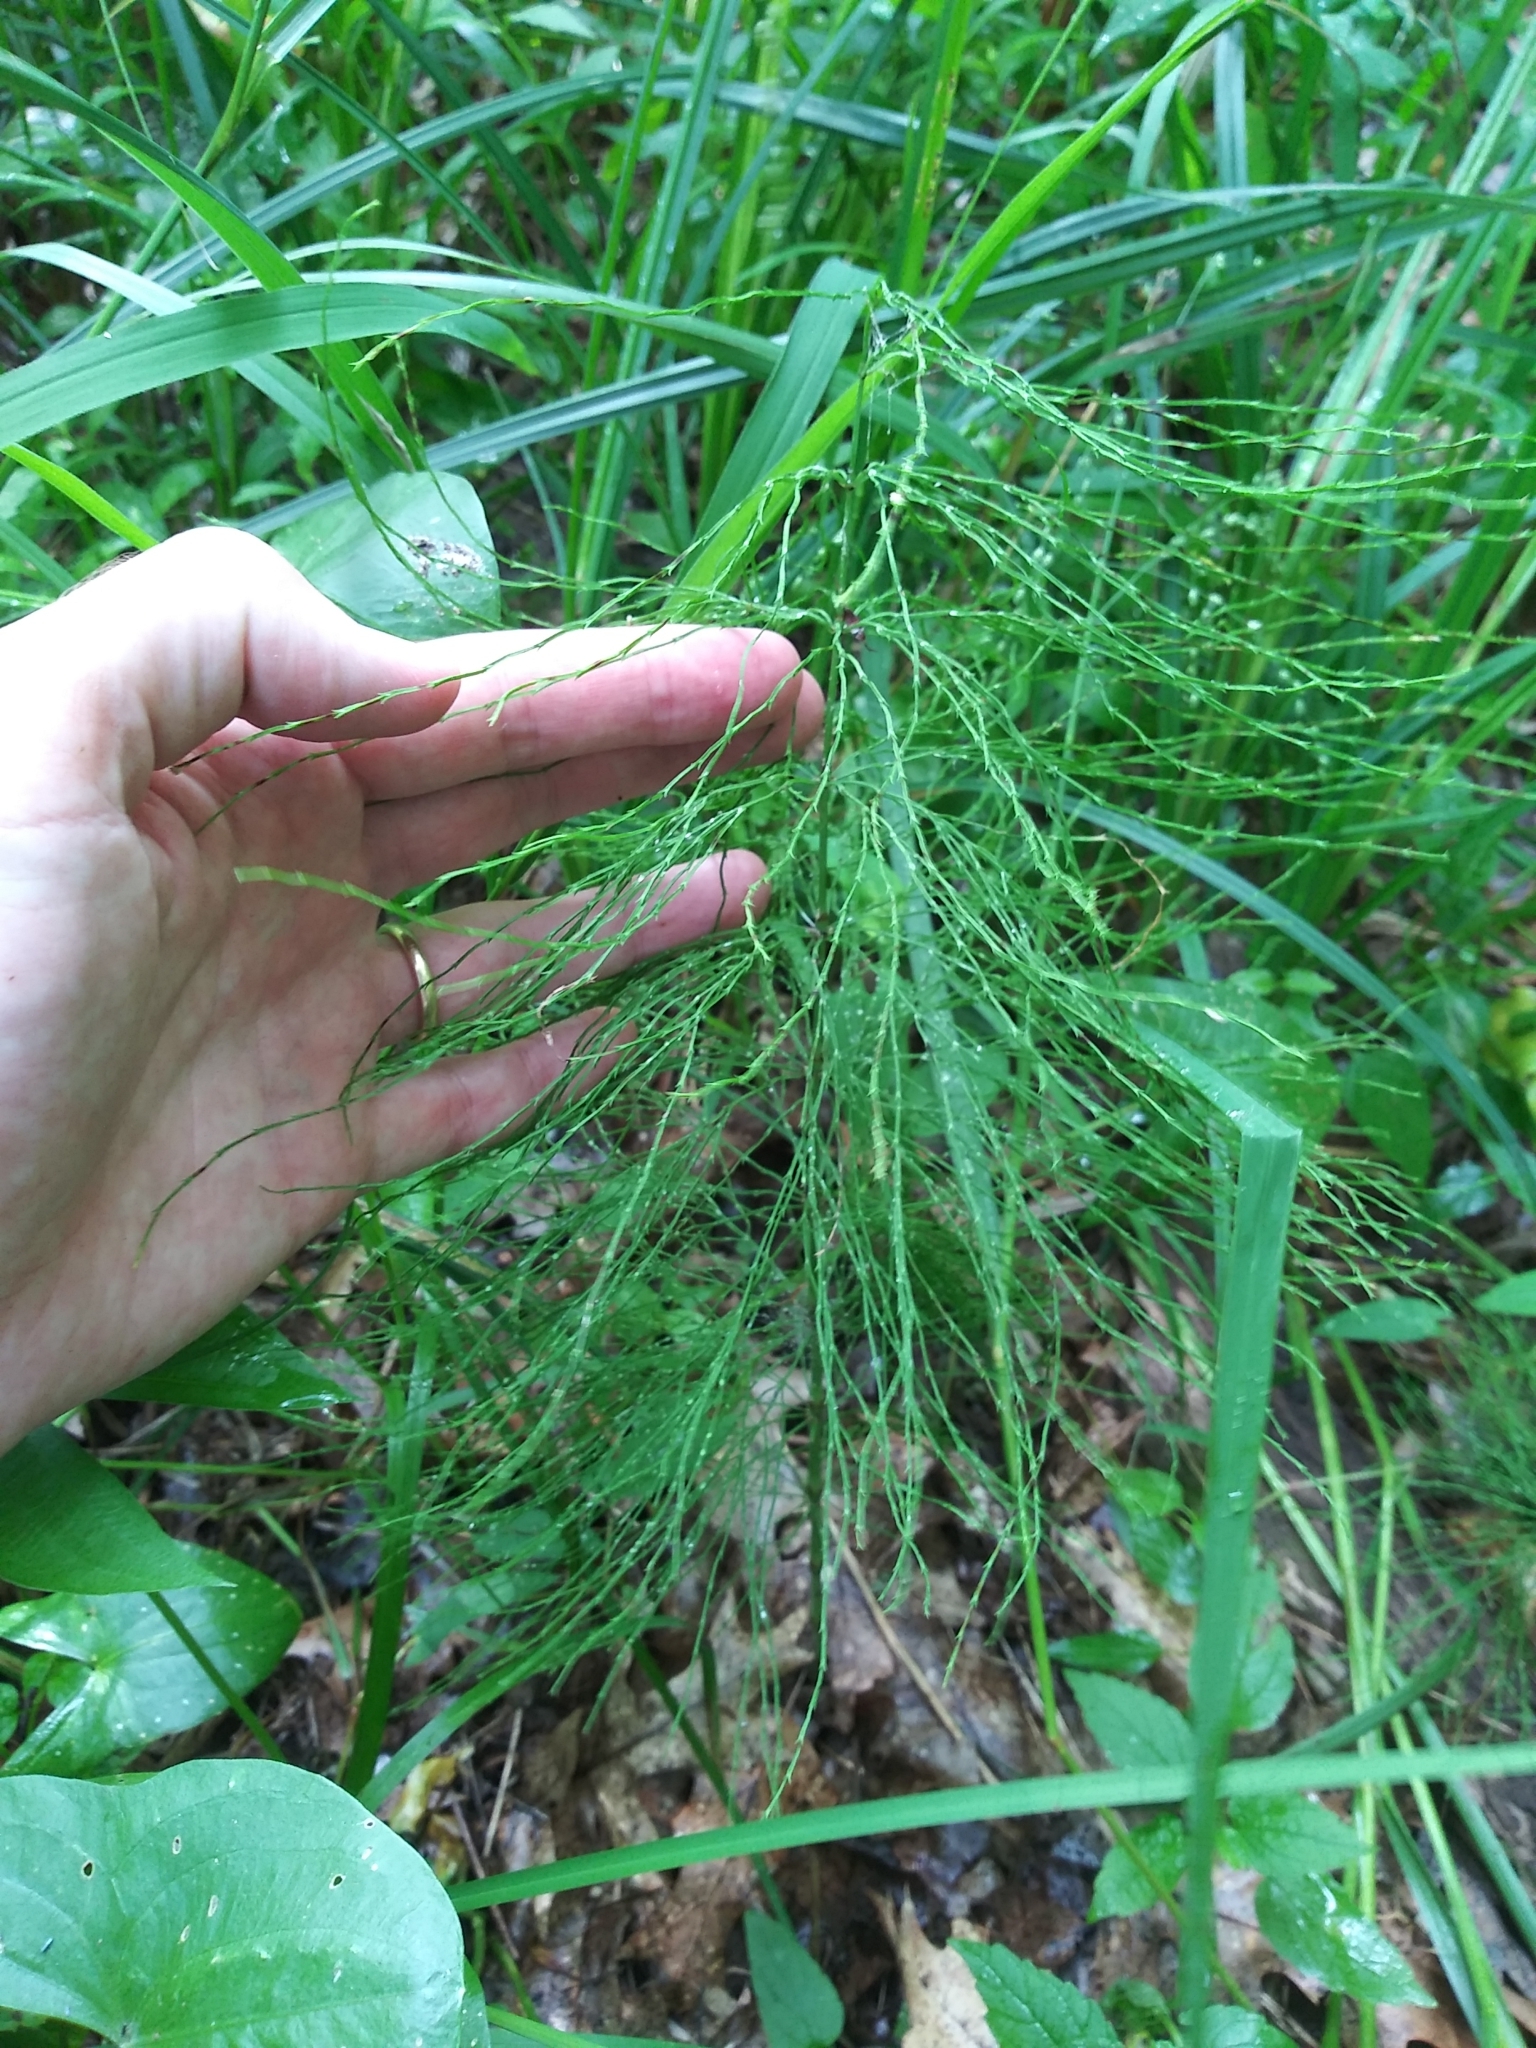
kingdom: Plantae
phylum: Tracheophyta
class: Polypodiopsida
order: Equisetales
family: Equisetaceae
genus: Equisetum
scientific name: Equisetum sylvaticum
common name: Wood horsetail
